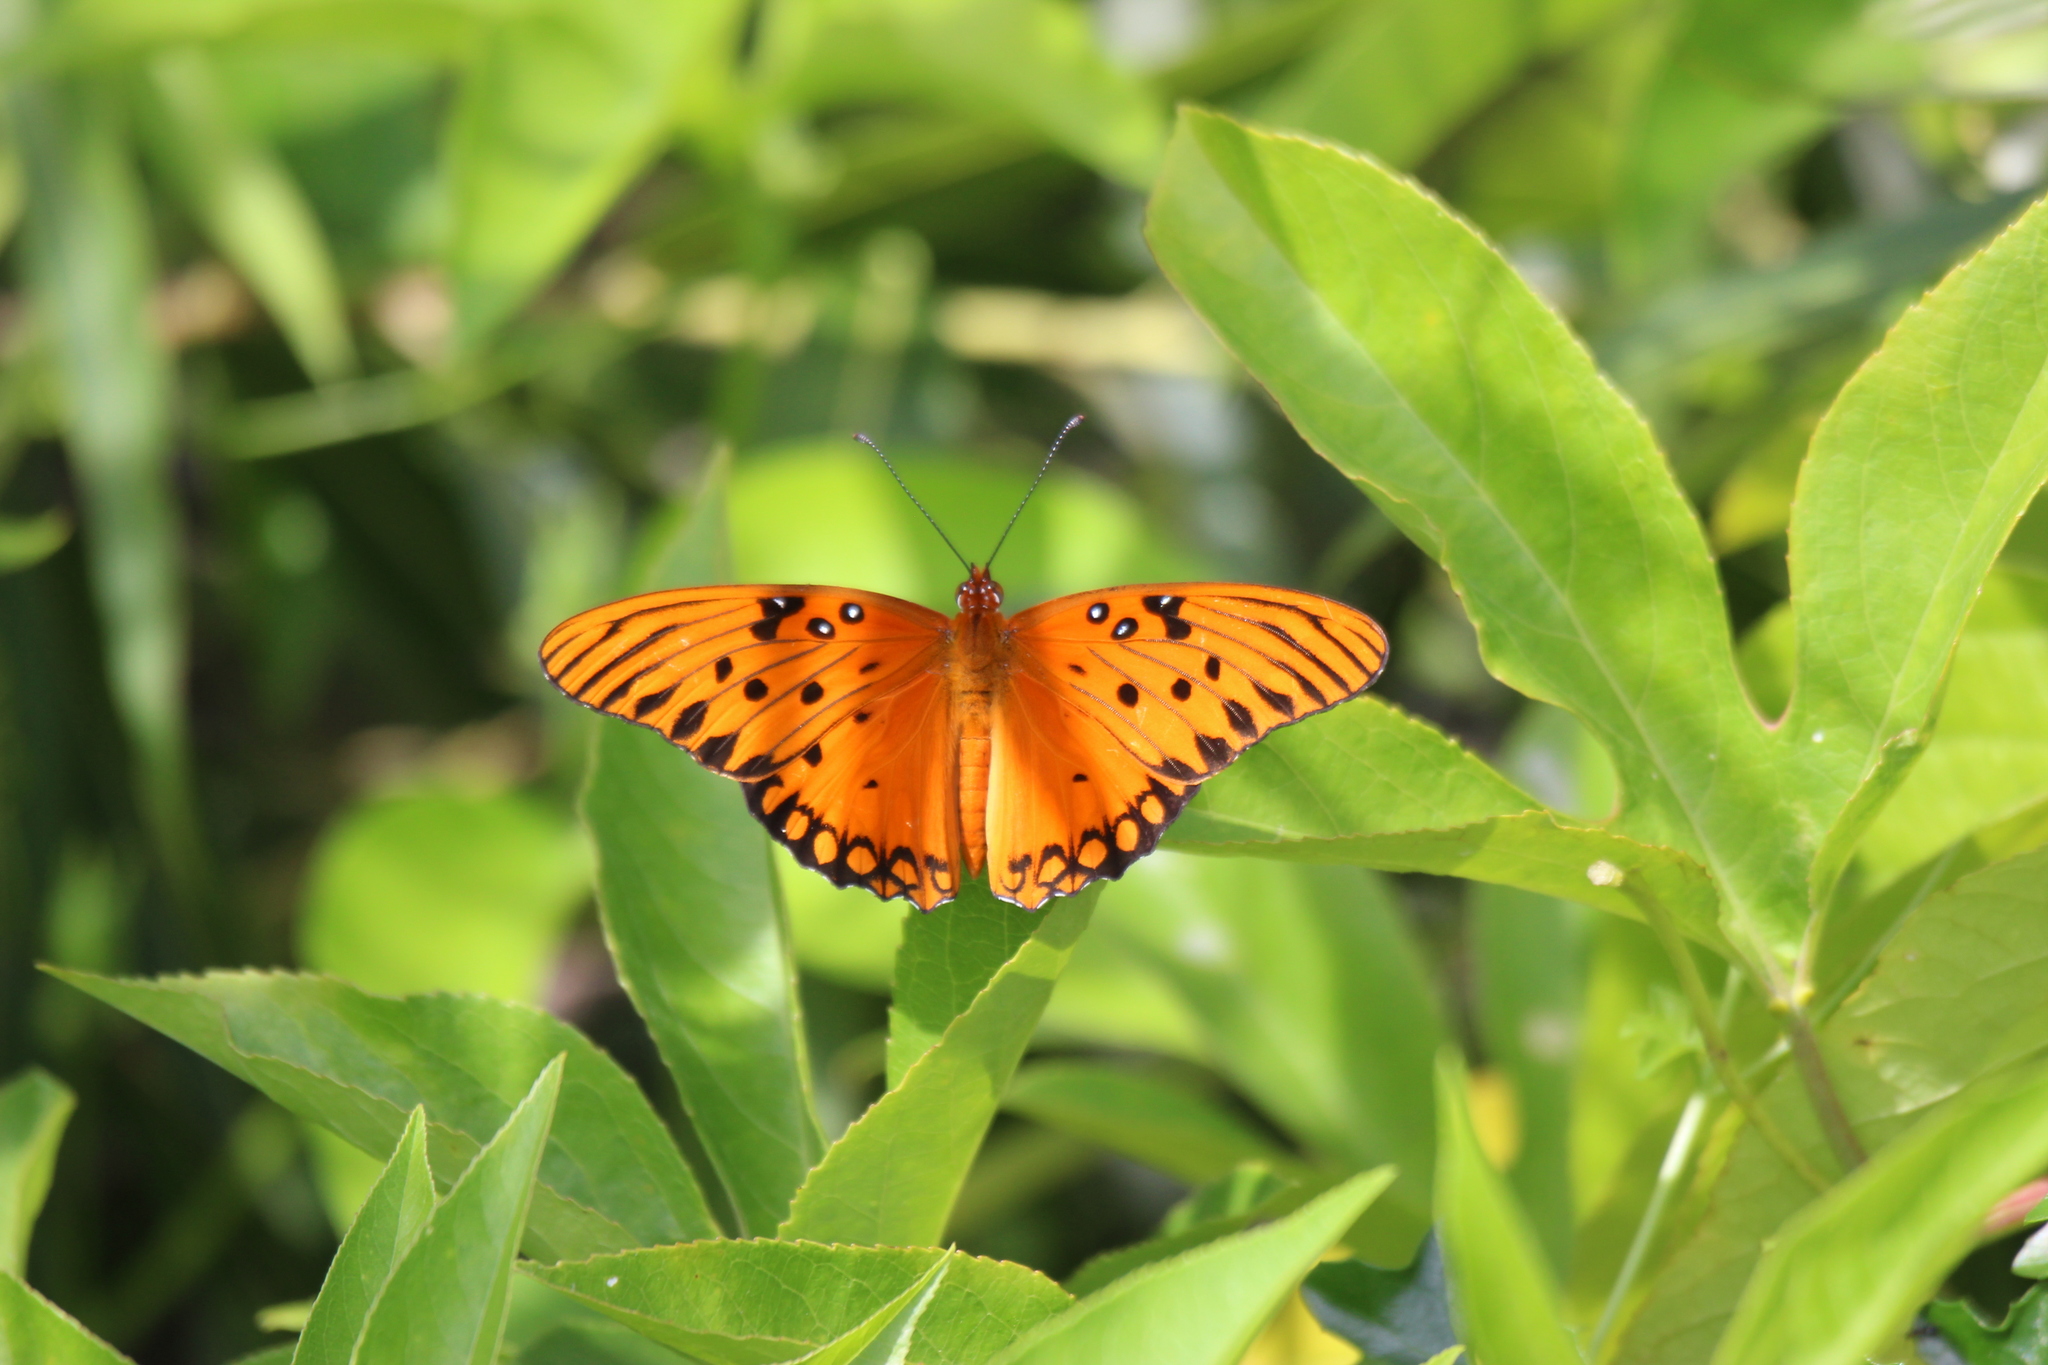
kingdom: Animalia
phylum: Arthropoda
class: Insecta
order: Lepidoptera
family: Nymphalidae
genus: Dione
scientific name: Dione vanillae
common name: Gulf fritillary
